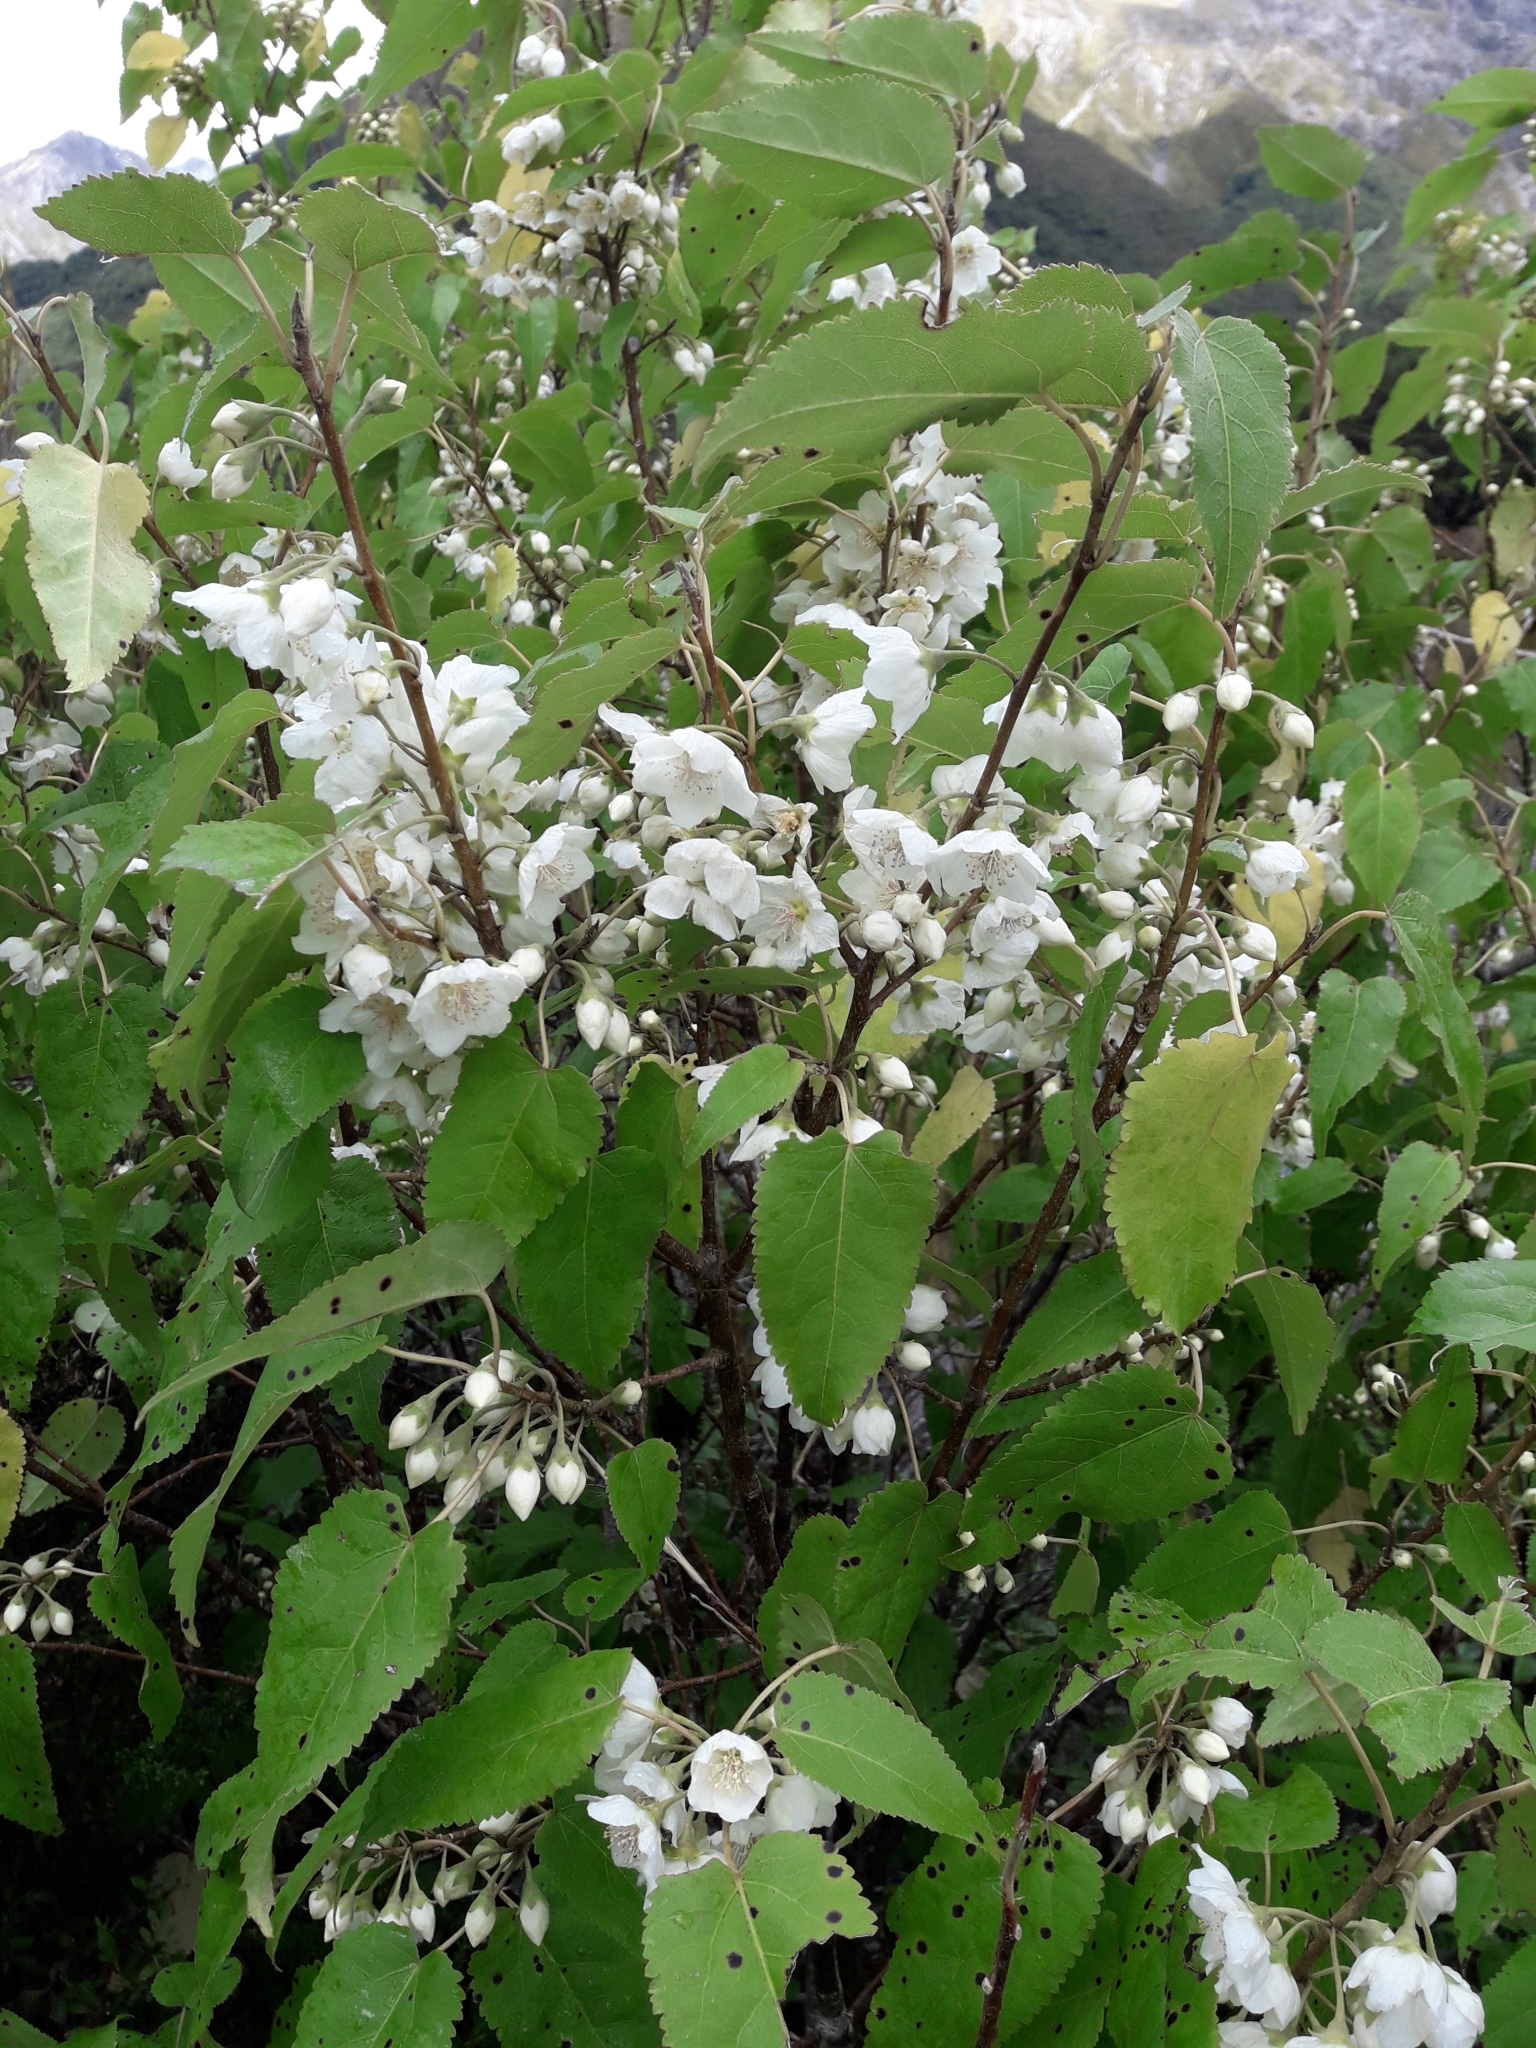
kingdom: Plantae
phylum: Tracheophyta
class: Magnoliopsida
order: Malvales
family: Malvaceae
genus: Hoheria
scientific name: Hoheria lyallii
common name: Lacebark
